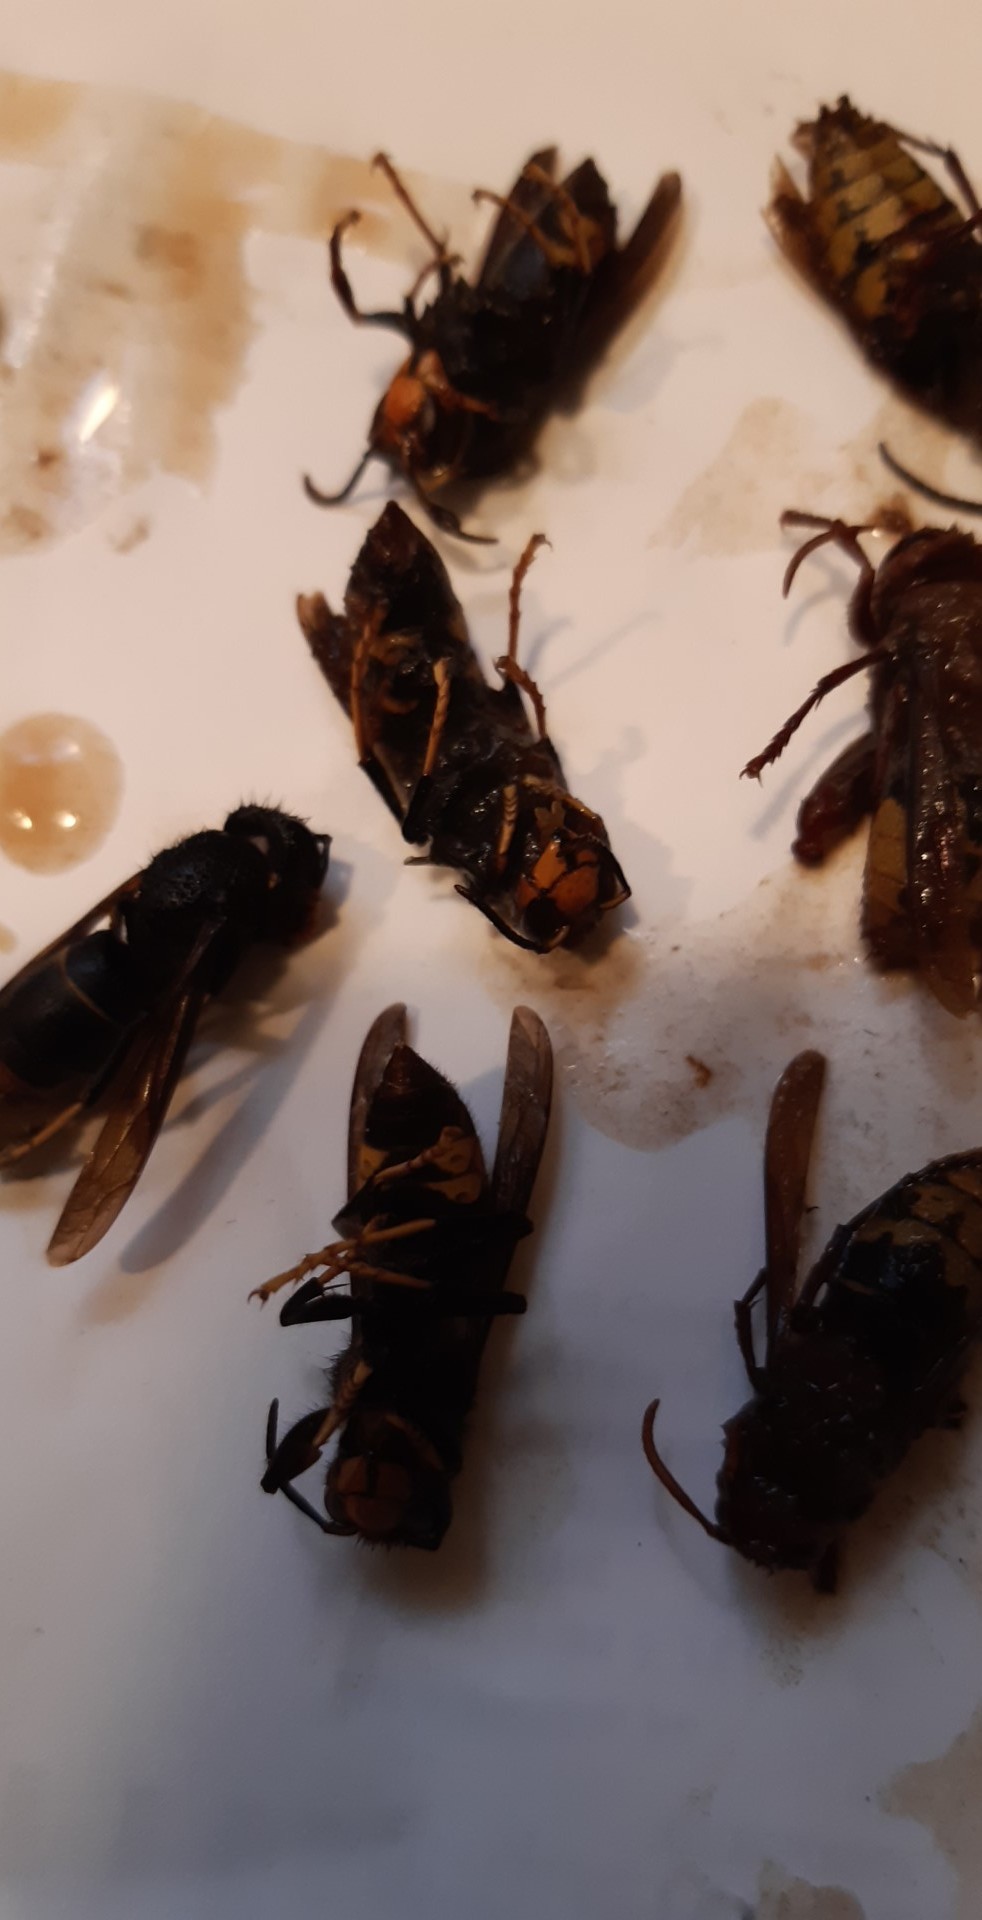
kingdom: Animalia
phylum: Arthropoda
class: Insecta
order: Hymenoptera
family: Vespidae
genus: Vespa
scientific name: Vespa velutina
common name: Asian hornet
